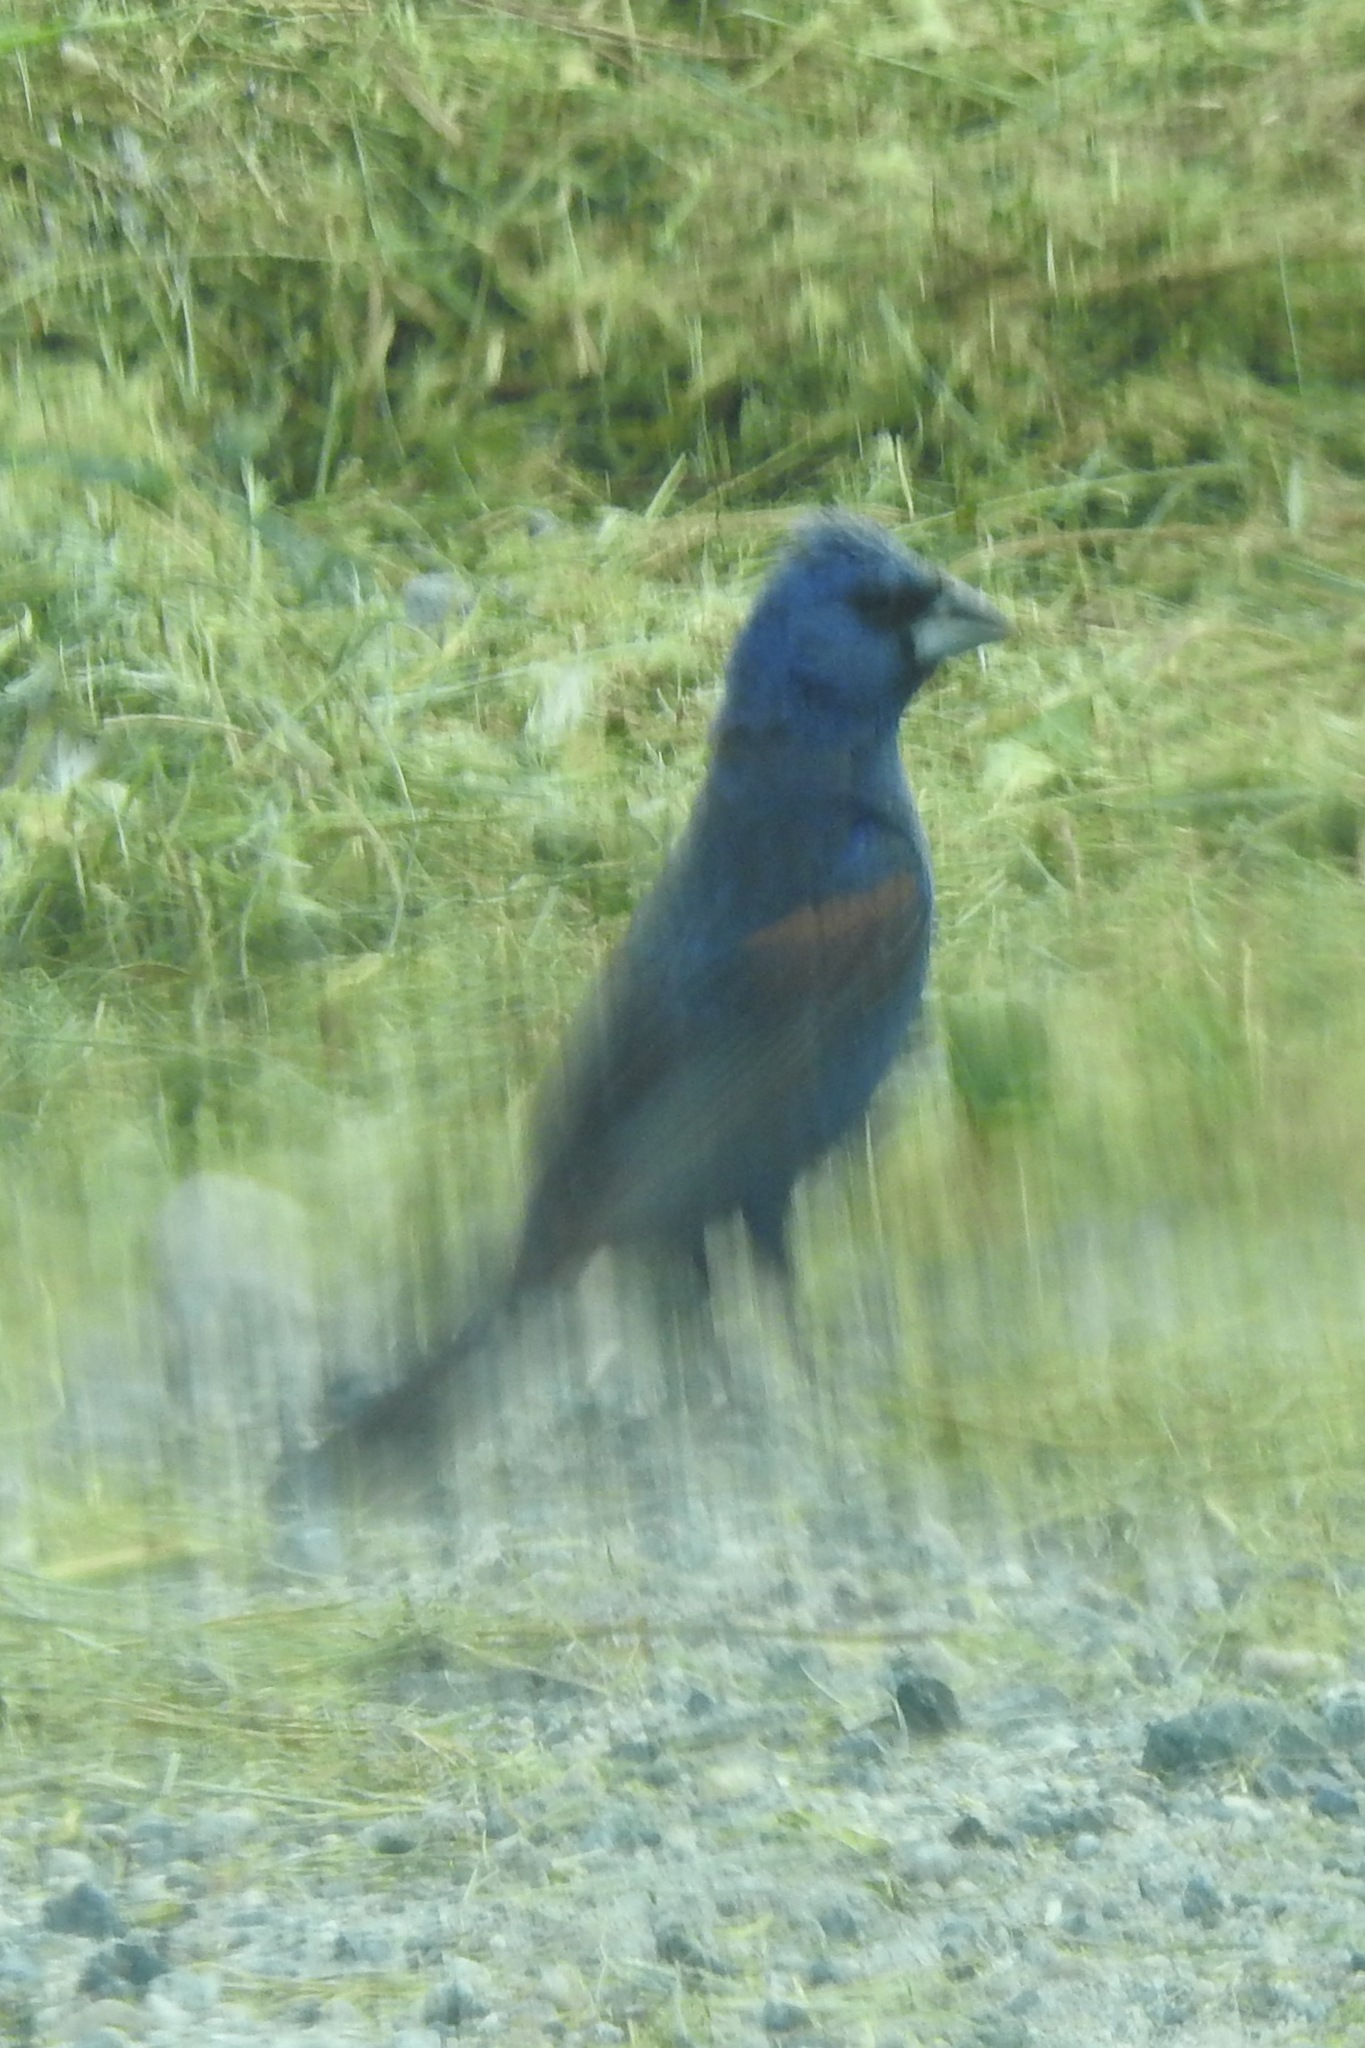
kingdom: Animalia
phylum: Chordata
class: Aves
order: Passeriformes
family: Cardinalidae
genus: Passerina
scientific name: Passerina caerulea
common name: Blue grosbeak
